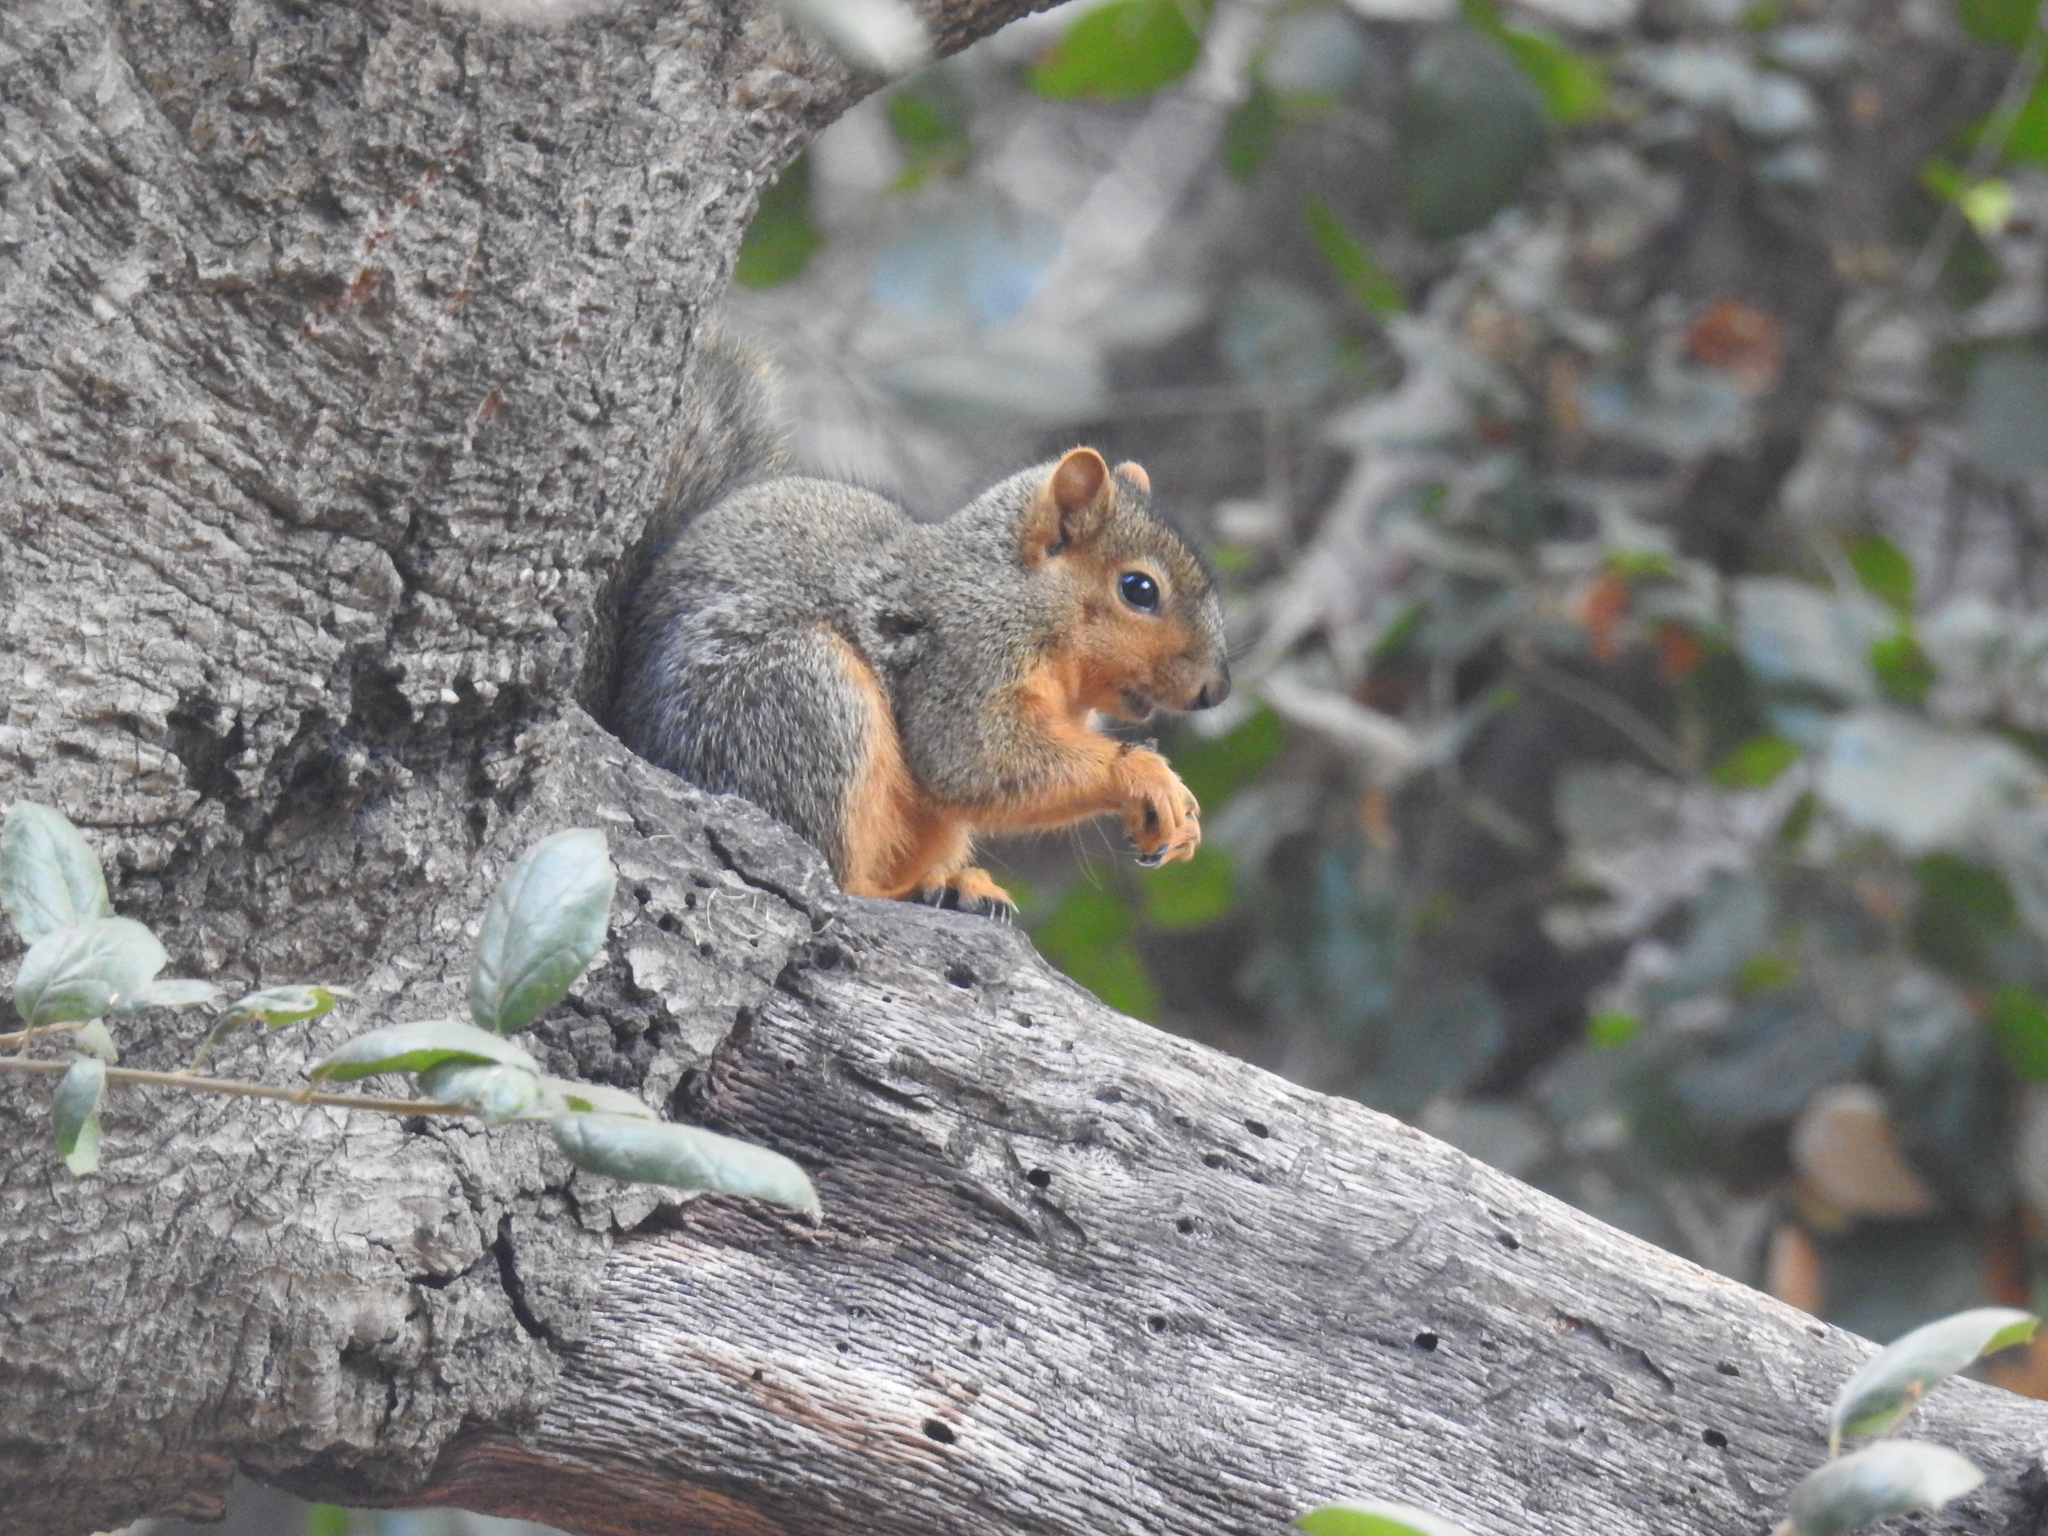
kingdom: Animalia
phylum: Chordata
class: Mammalia
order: Rodentia
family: Sciuridae
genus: Sciurus
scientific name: Sciurus niger
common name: Fox squirrel
